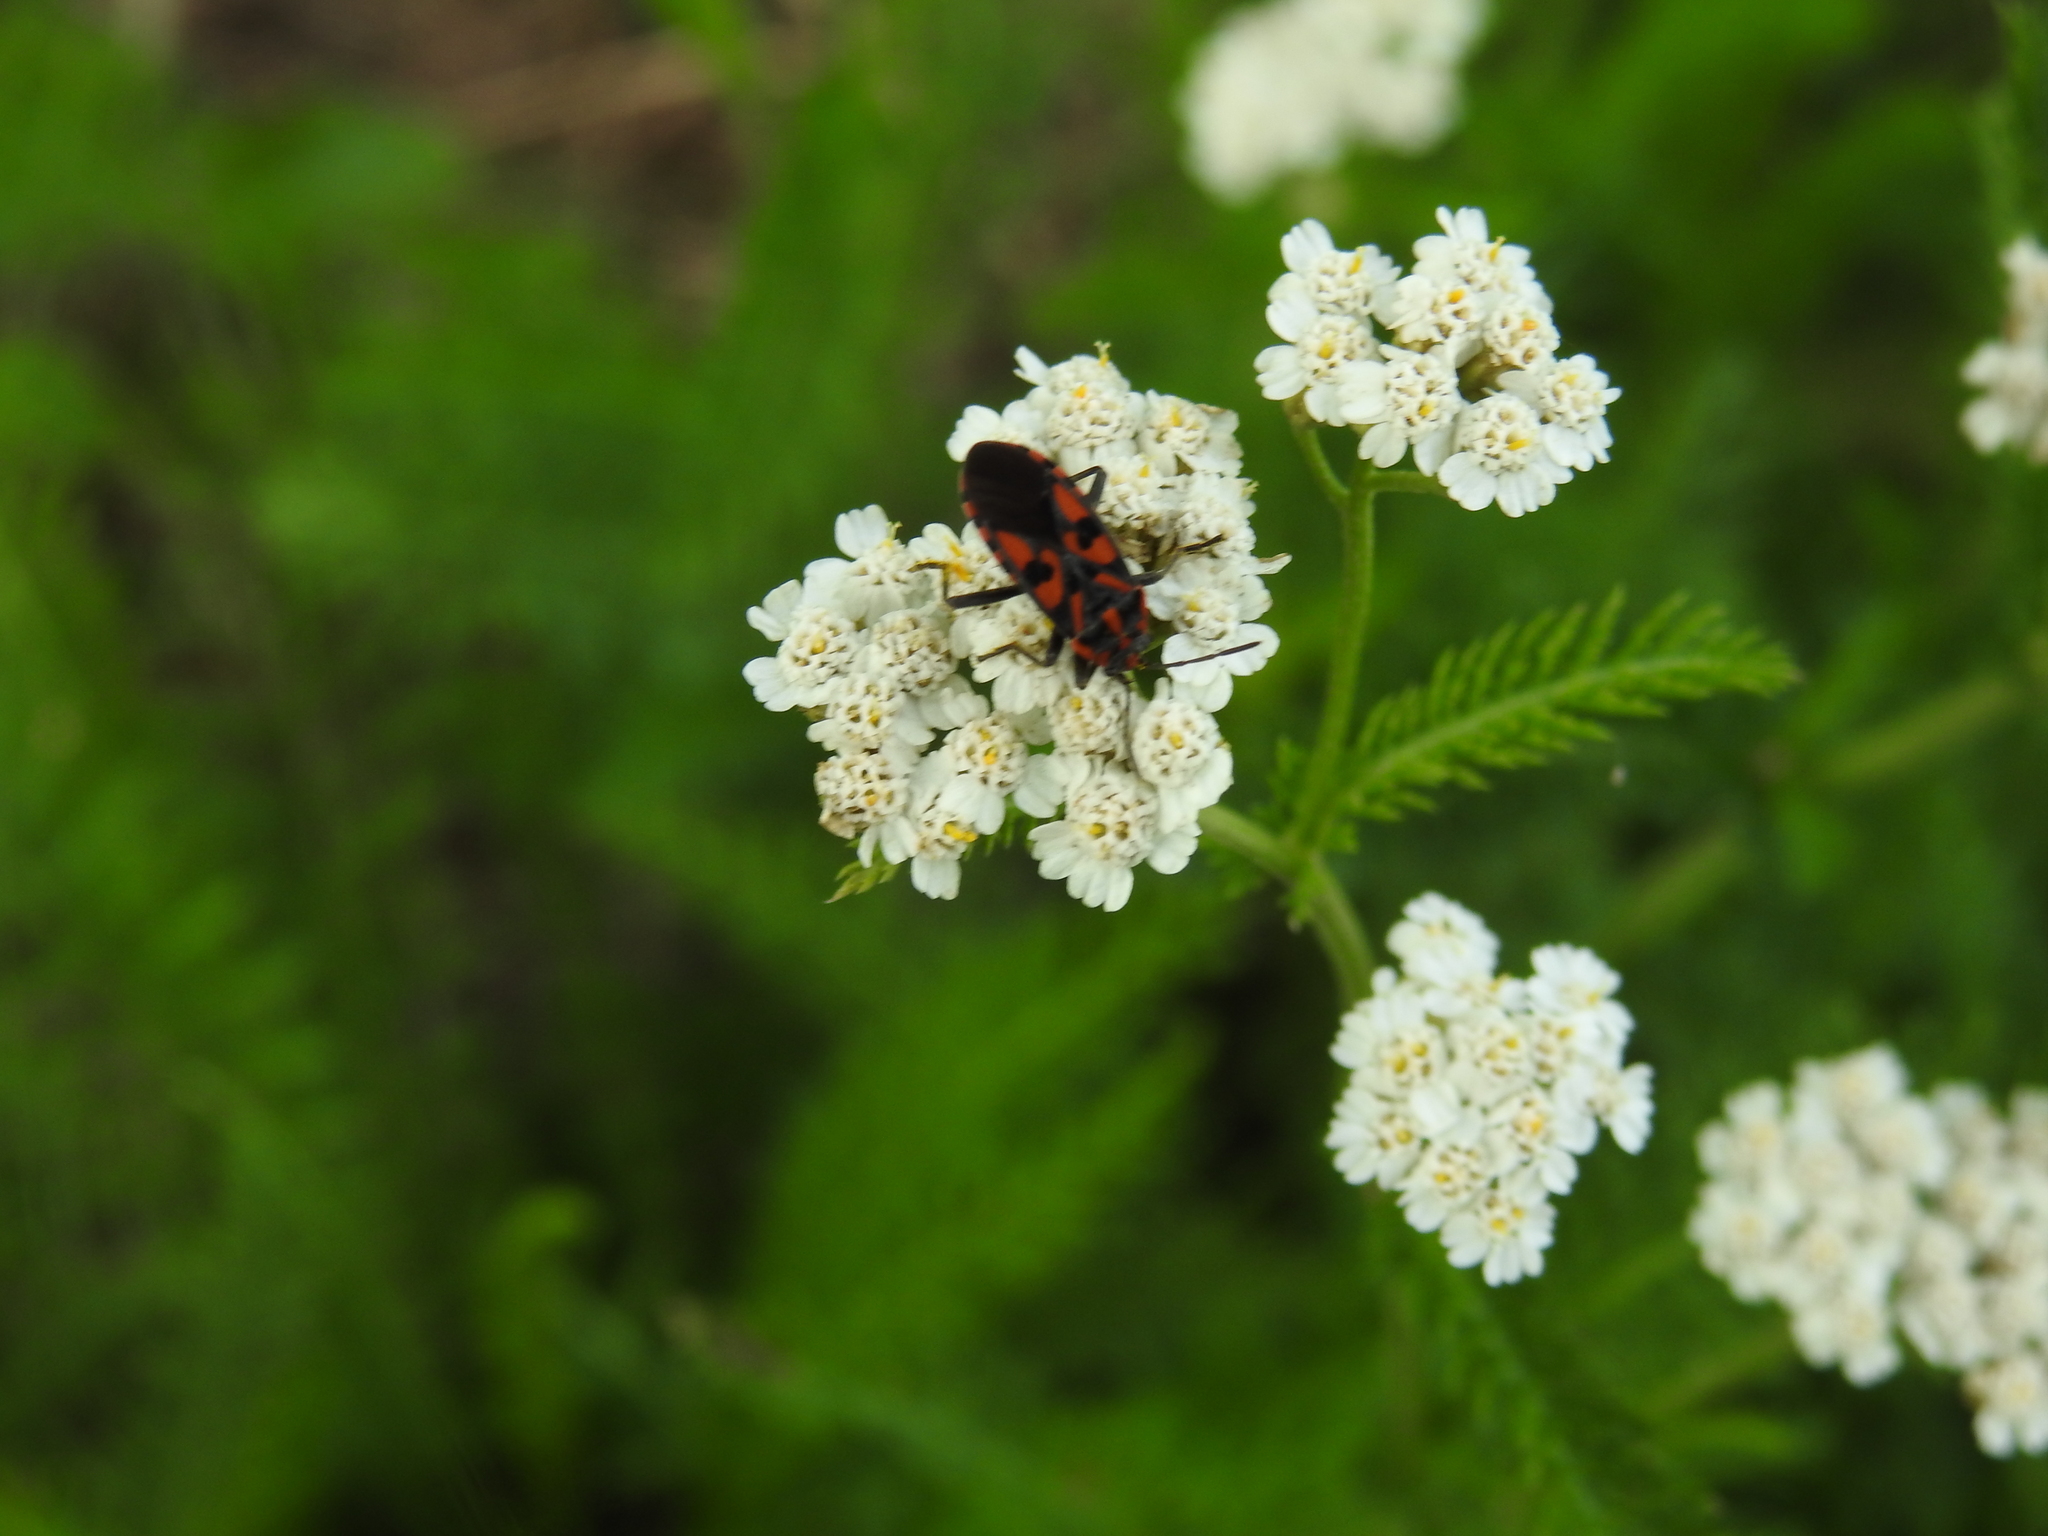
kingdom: Animalia
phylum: Arthropoda
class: Insecta
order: Hemiptera
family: Lygaeidae
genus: Spilostethus
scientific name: Spilostethus saxatilis
